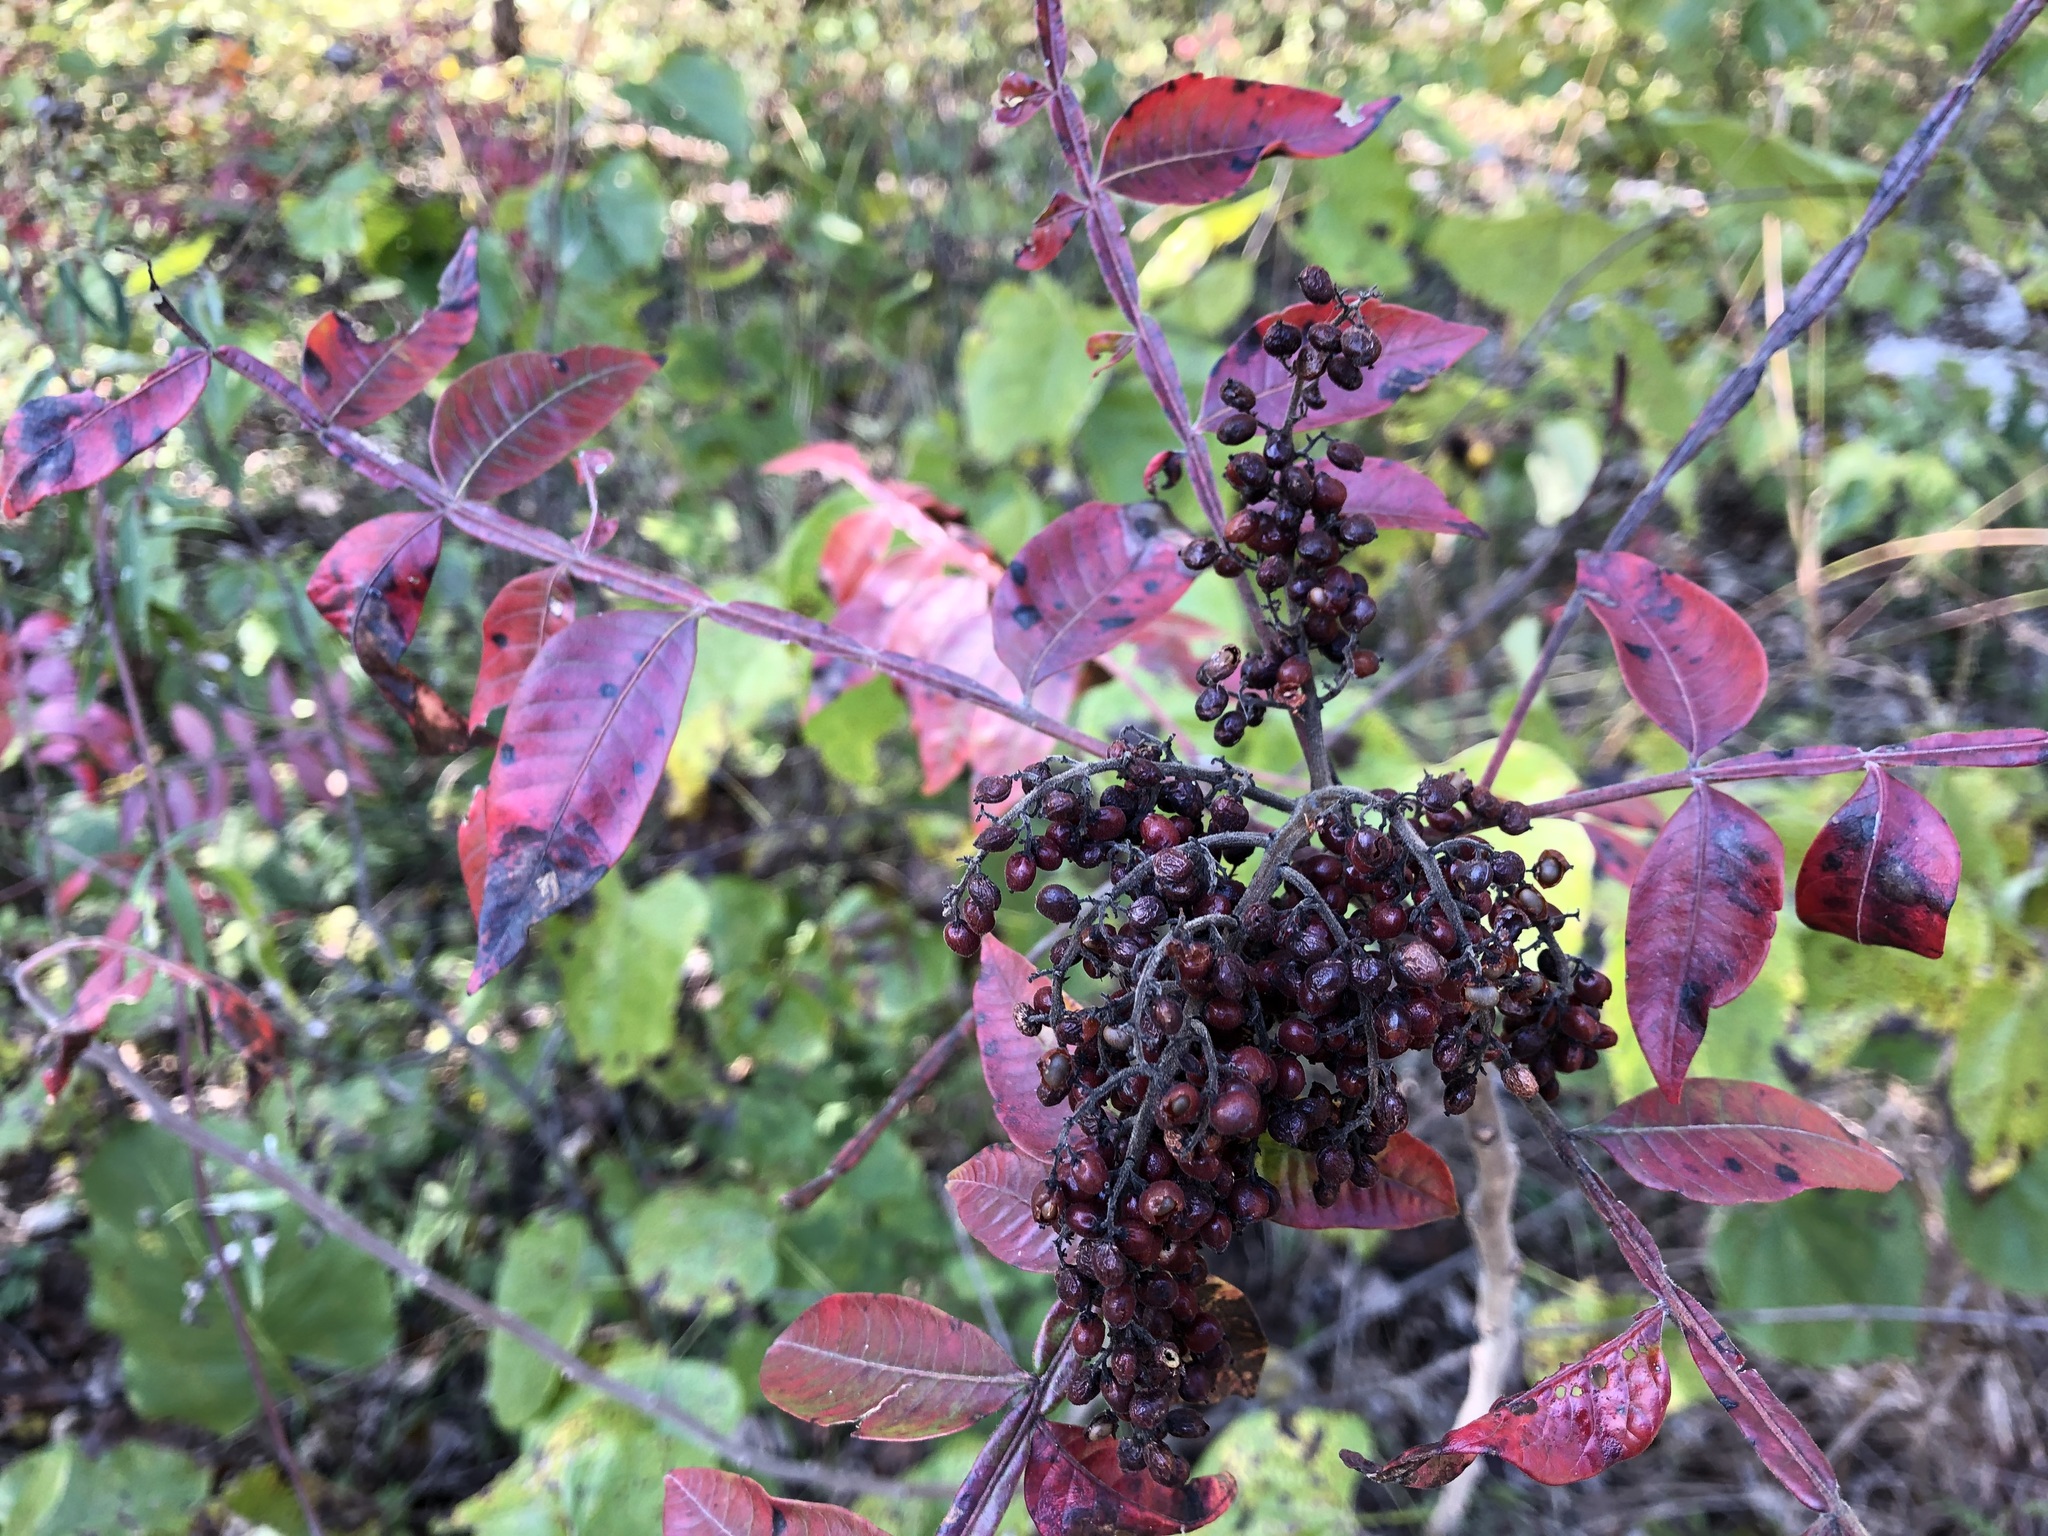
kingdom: Plantae
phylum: Tracheophyta
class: Magnoliopsida
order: Sapindales
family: Anacardiaceae
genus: Rhus
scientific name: Rhus copallina
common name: Shining sumac
